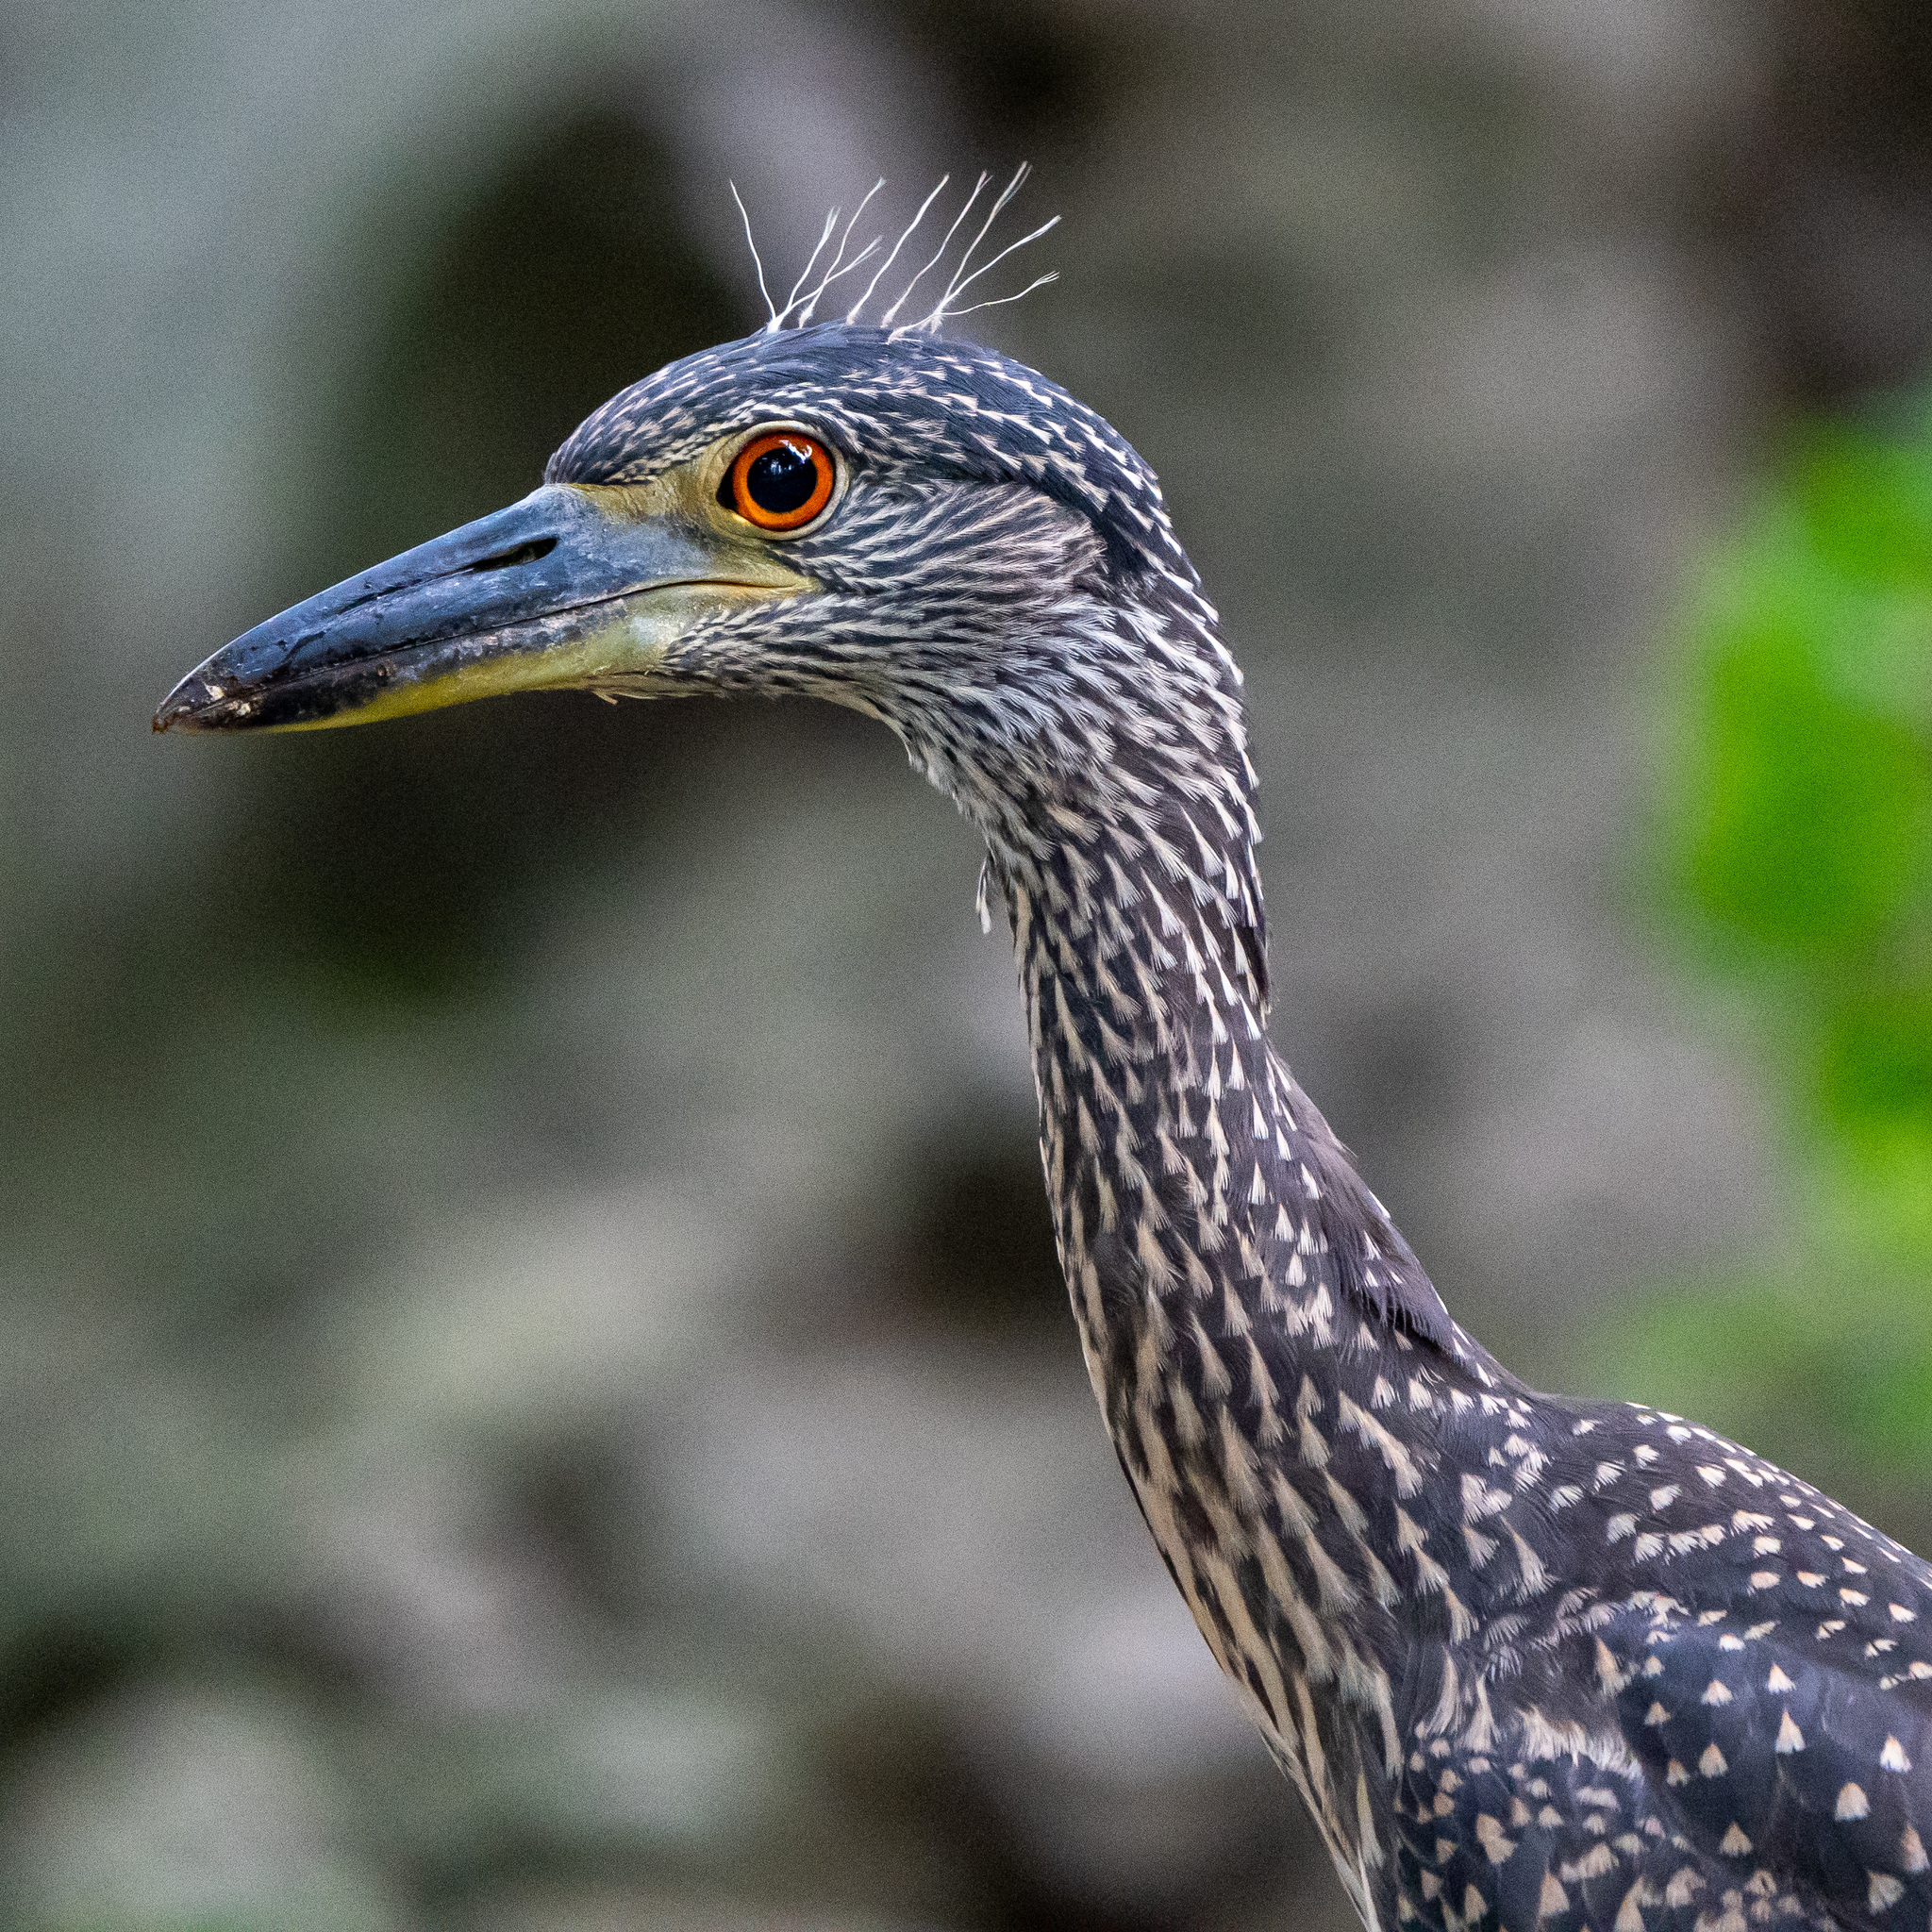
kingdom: Animalia
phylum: Chordata
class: Aves
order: Pelecaniformes
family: Ardeidae
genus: Nyctanassa
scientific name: Nyctanassa violacea
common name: Yellow-crowned night heron
